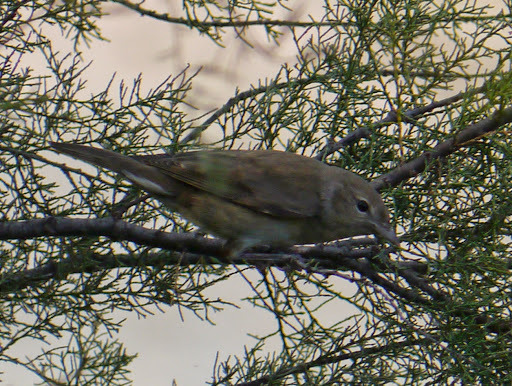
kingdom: Animalia
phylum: Chordata
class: Aves
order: Passeriformes
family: Sylviidae
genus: Sylvia
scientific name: Sylvia borin
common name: Garden warbler
